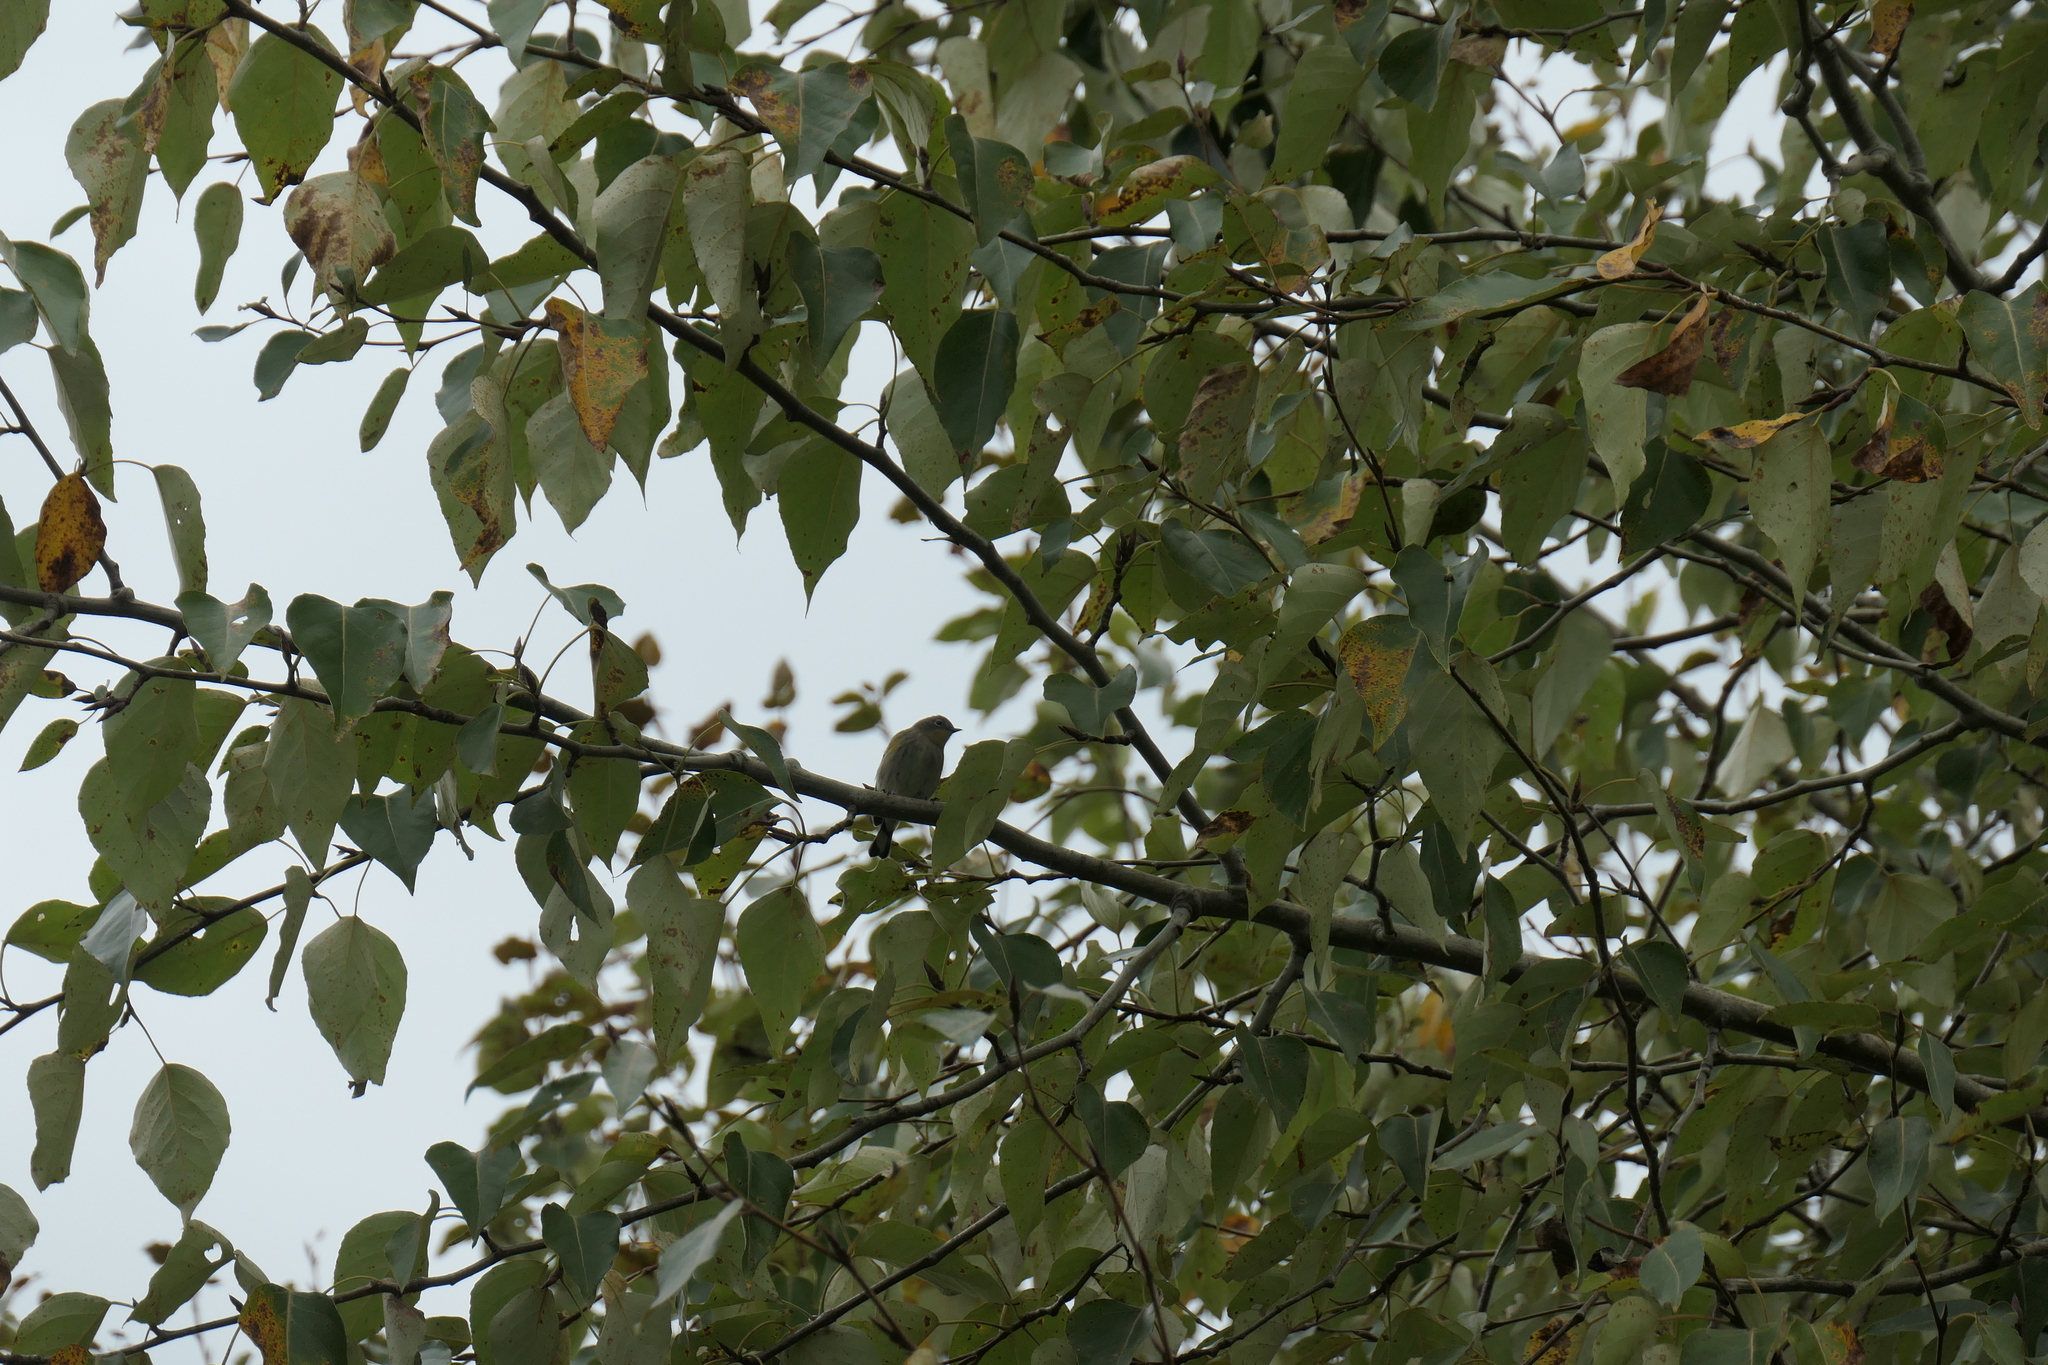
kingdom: Animalia
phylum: Chordata
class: Aves
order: Passeriformes
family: Parulidae
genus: Setophaga
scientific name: Setophaga coronata
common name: Myrtle warbler
